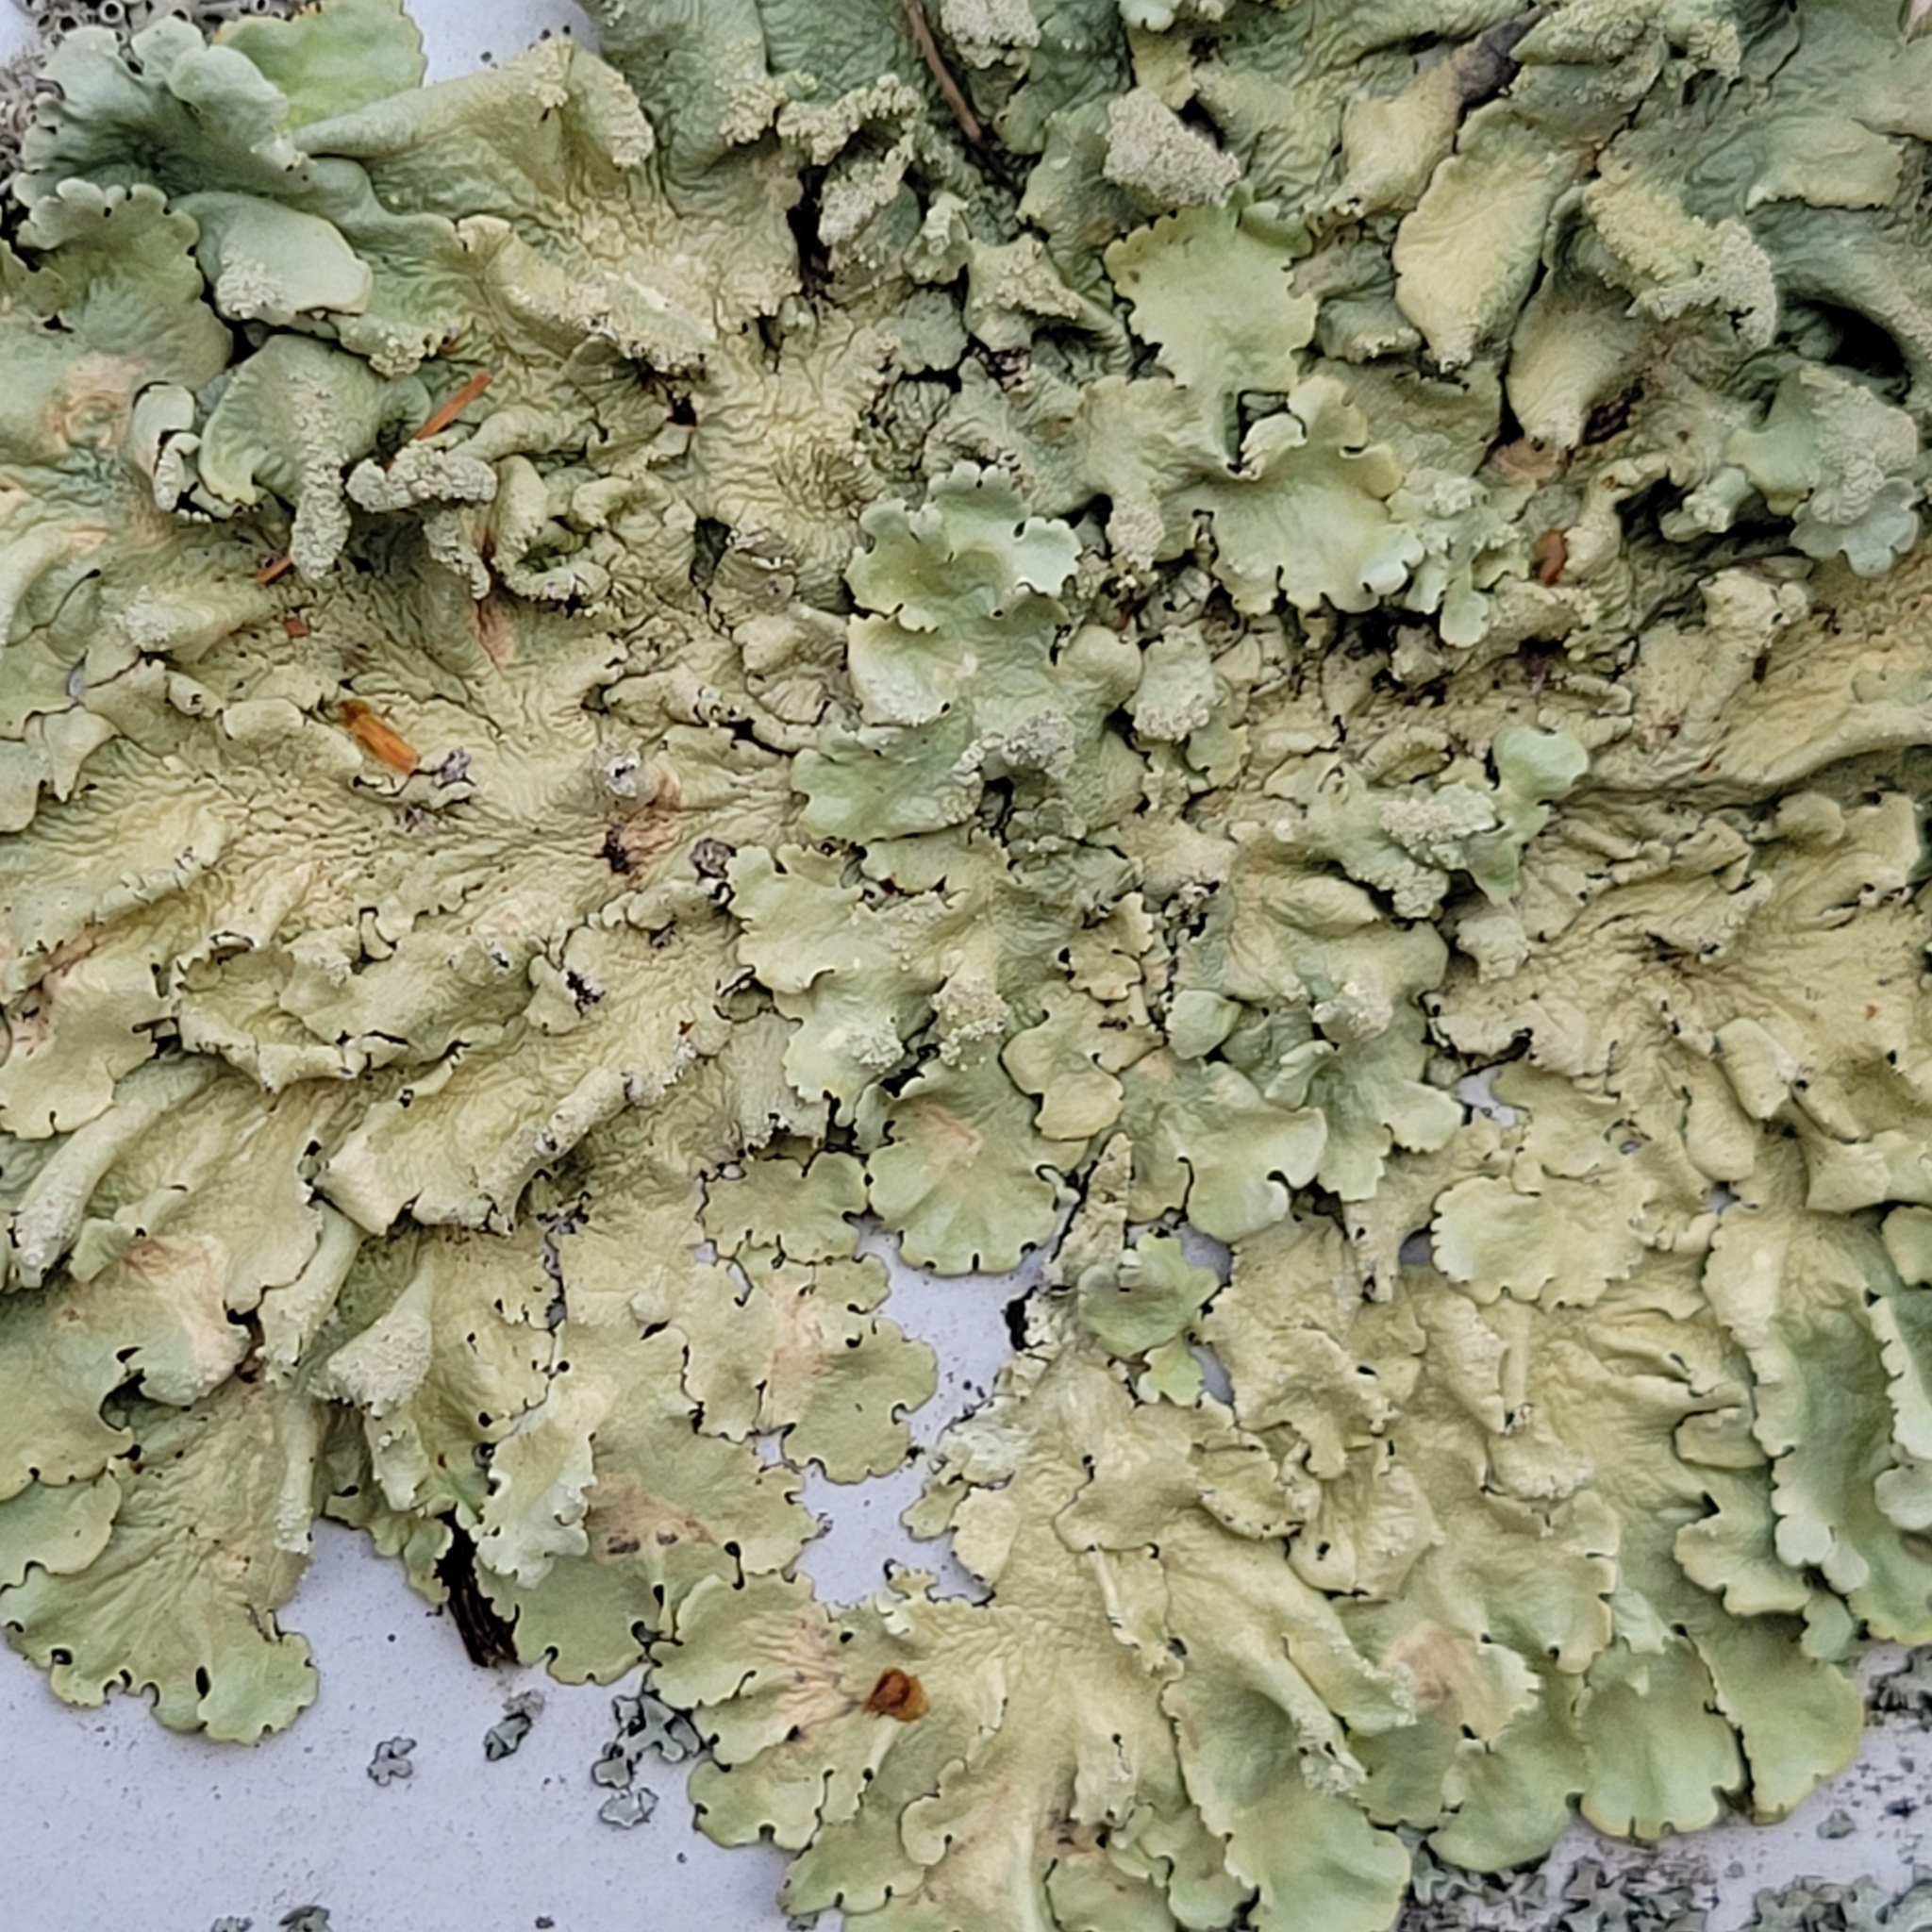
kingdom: Fungi
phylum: Ascomycota
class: Lecanoromycetes
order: Lecanorales
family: Parmeliaceae
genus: Flavoparmelia
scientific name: Flavoparmelia caperata
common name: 40-mile per hour lichen
